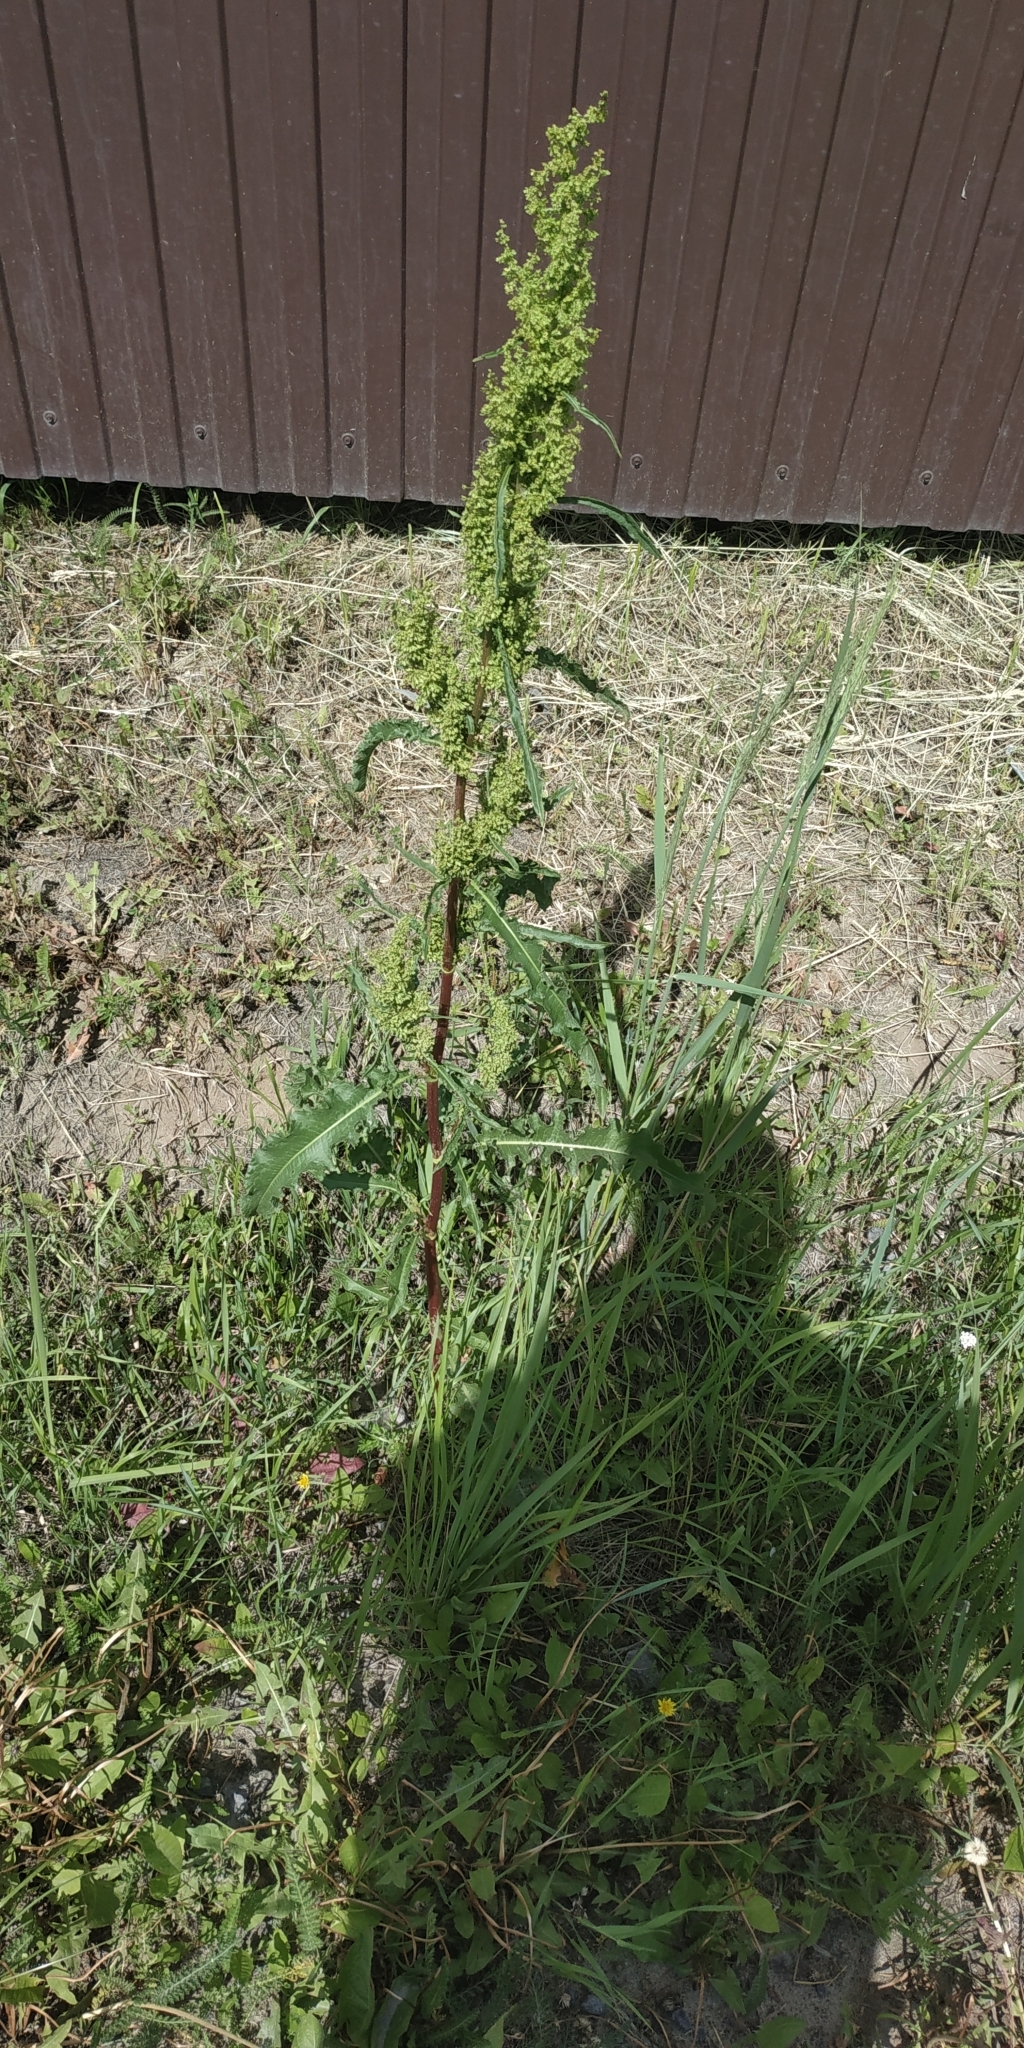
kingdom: Plantae
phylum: Tracheophyta
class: Magnoliopsida
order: Caryophyllales
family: Polygonaceae
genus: Rumex
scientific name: Rumex pseudonatronatus
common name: Field dock
